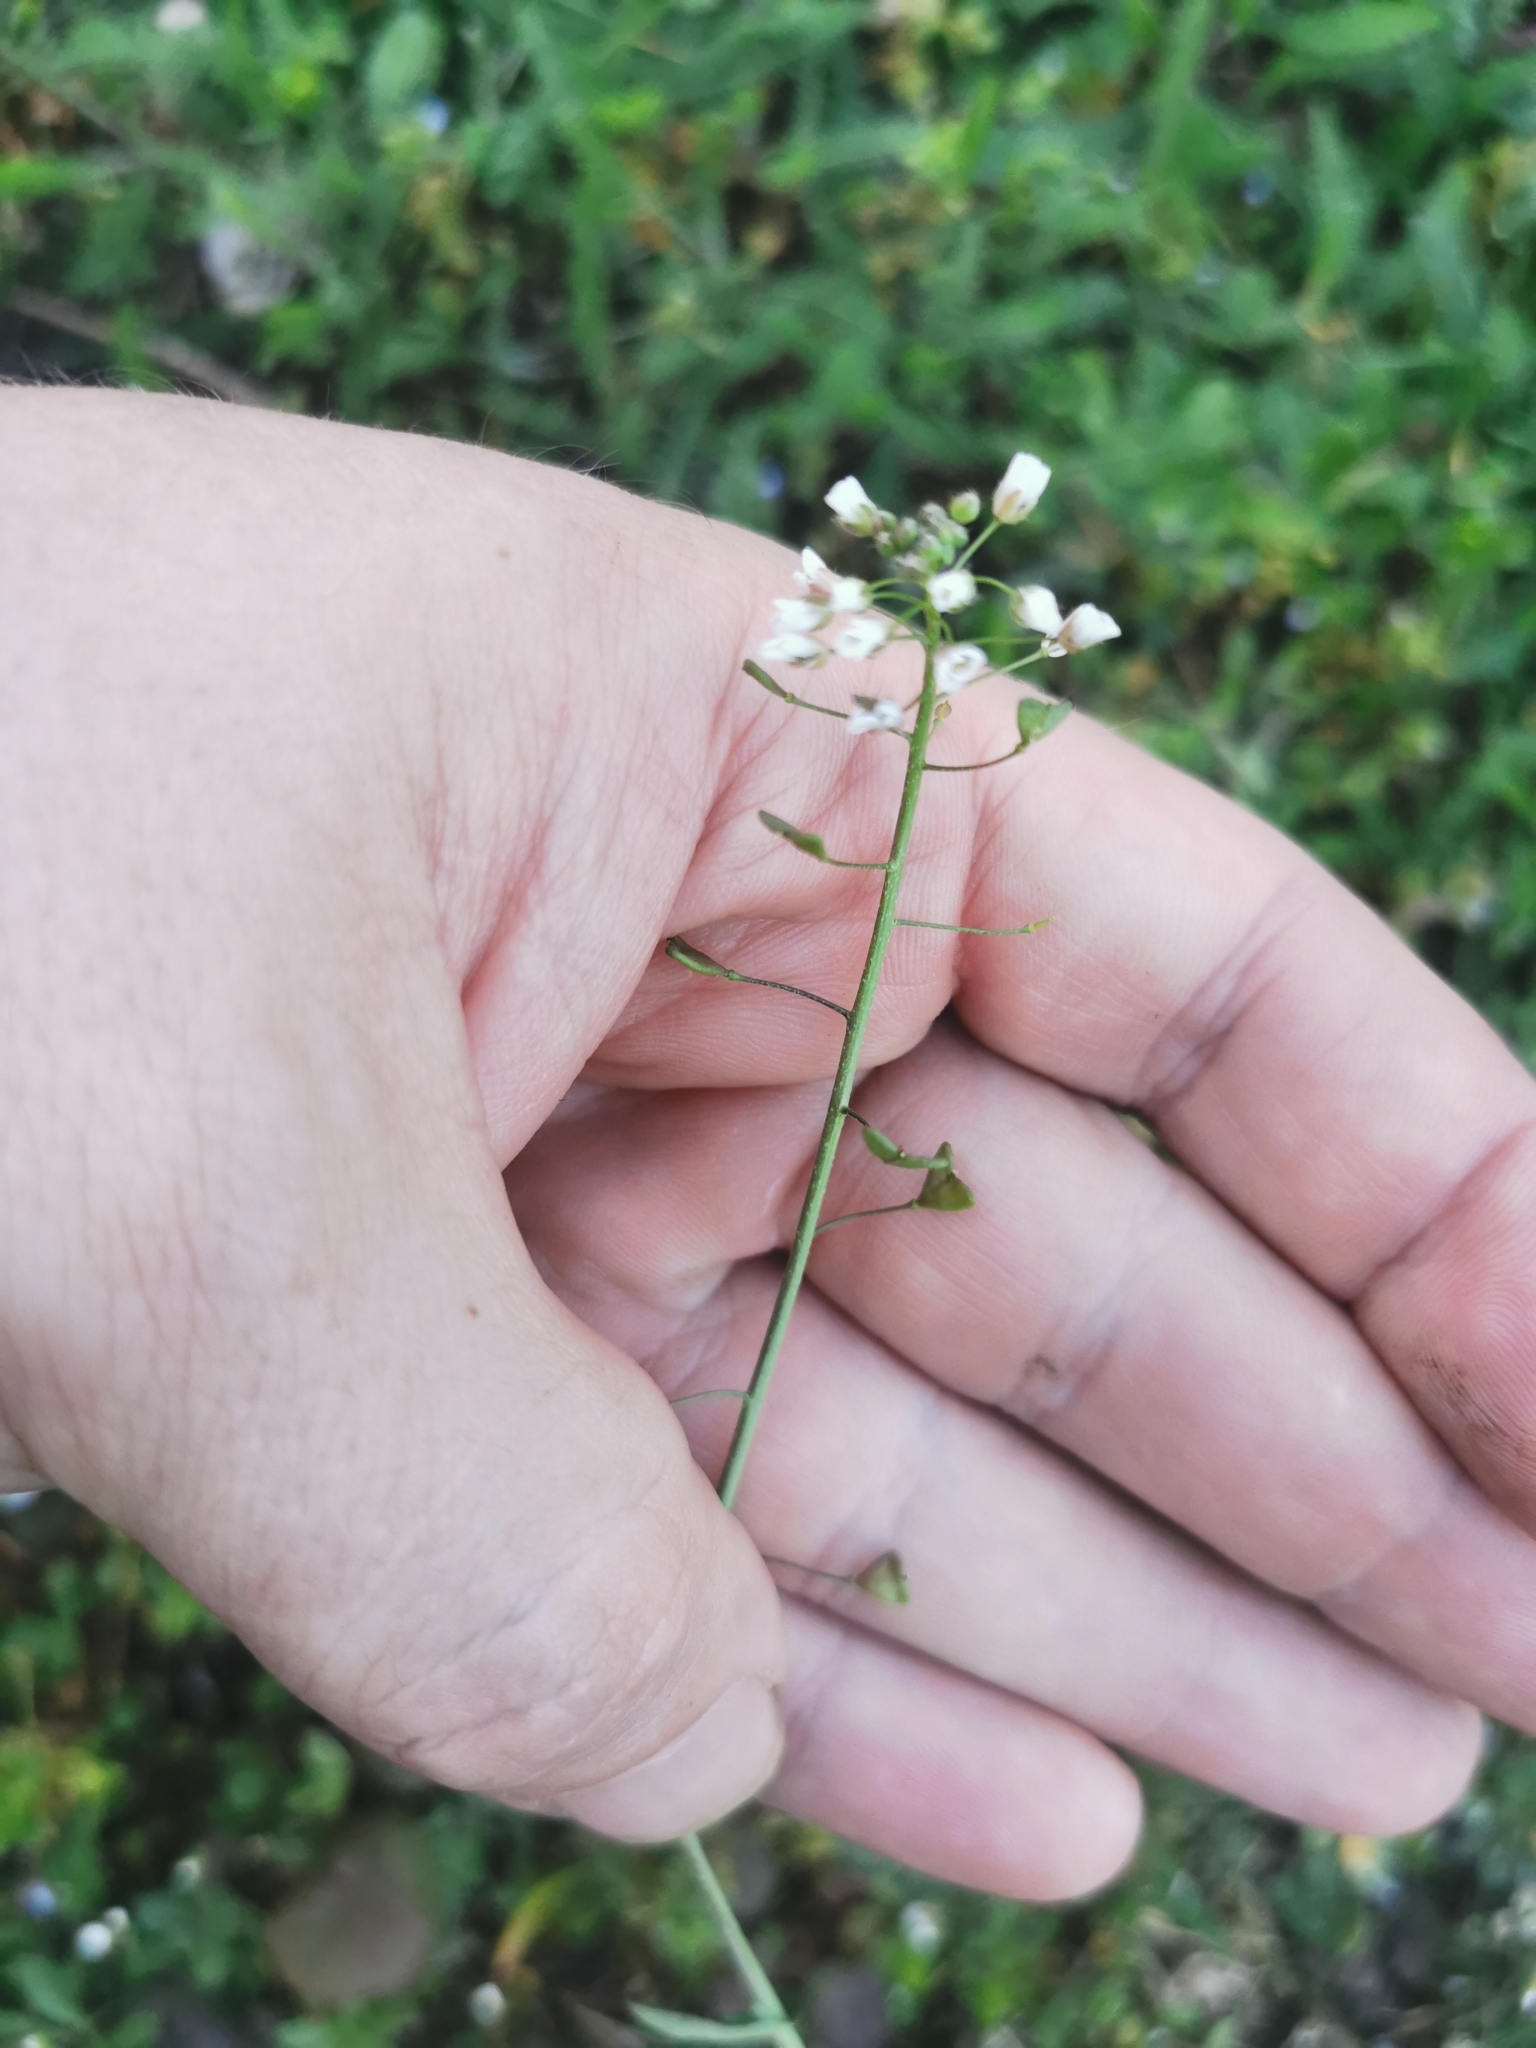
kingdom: Plantae
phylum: Tracheophyta
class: Magnoliopsida
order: Brassicales
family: Brassicaceae
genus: Capsella
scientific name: Capsella bursa-pastoris
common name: Shepherd's purse
